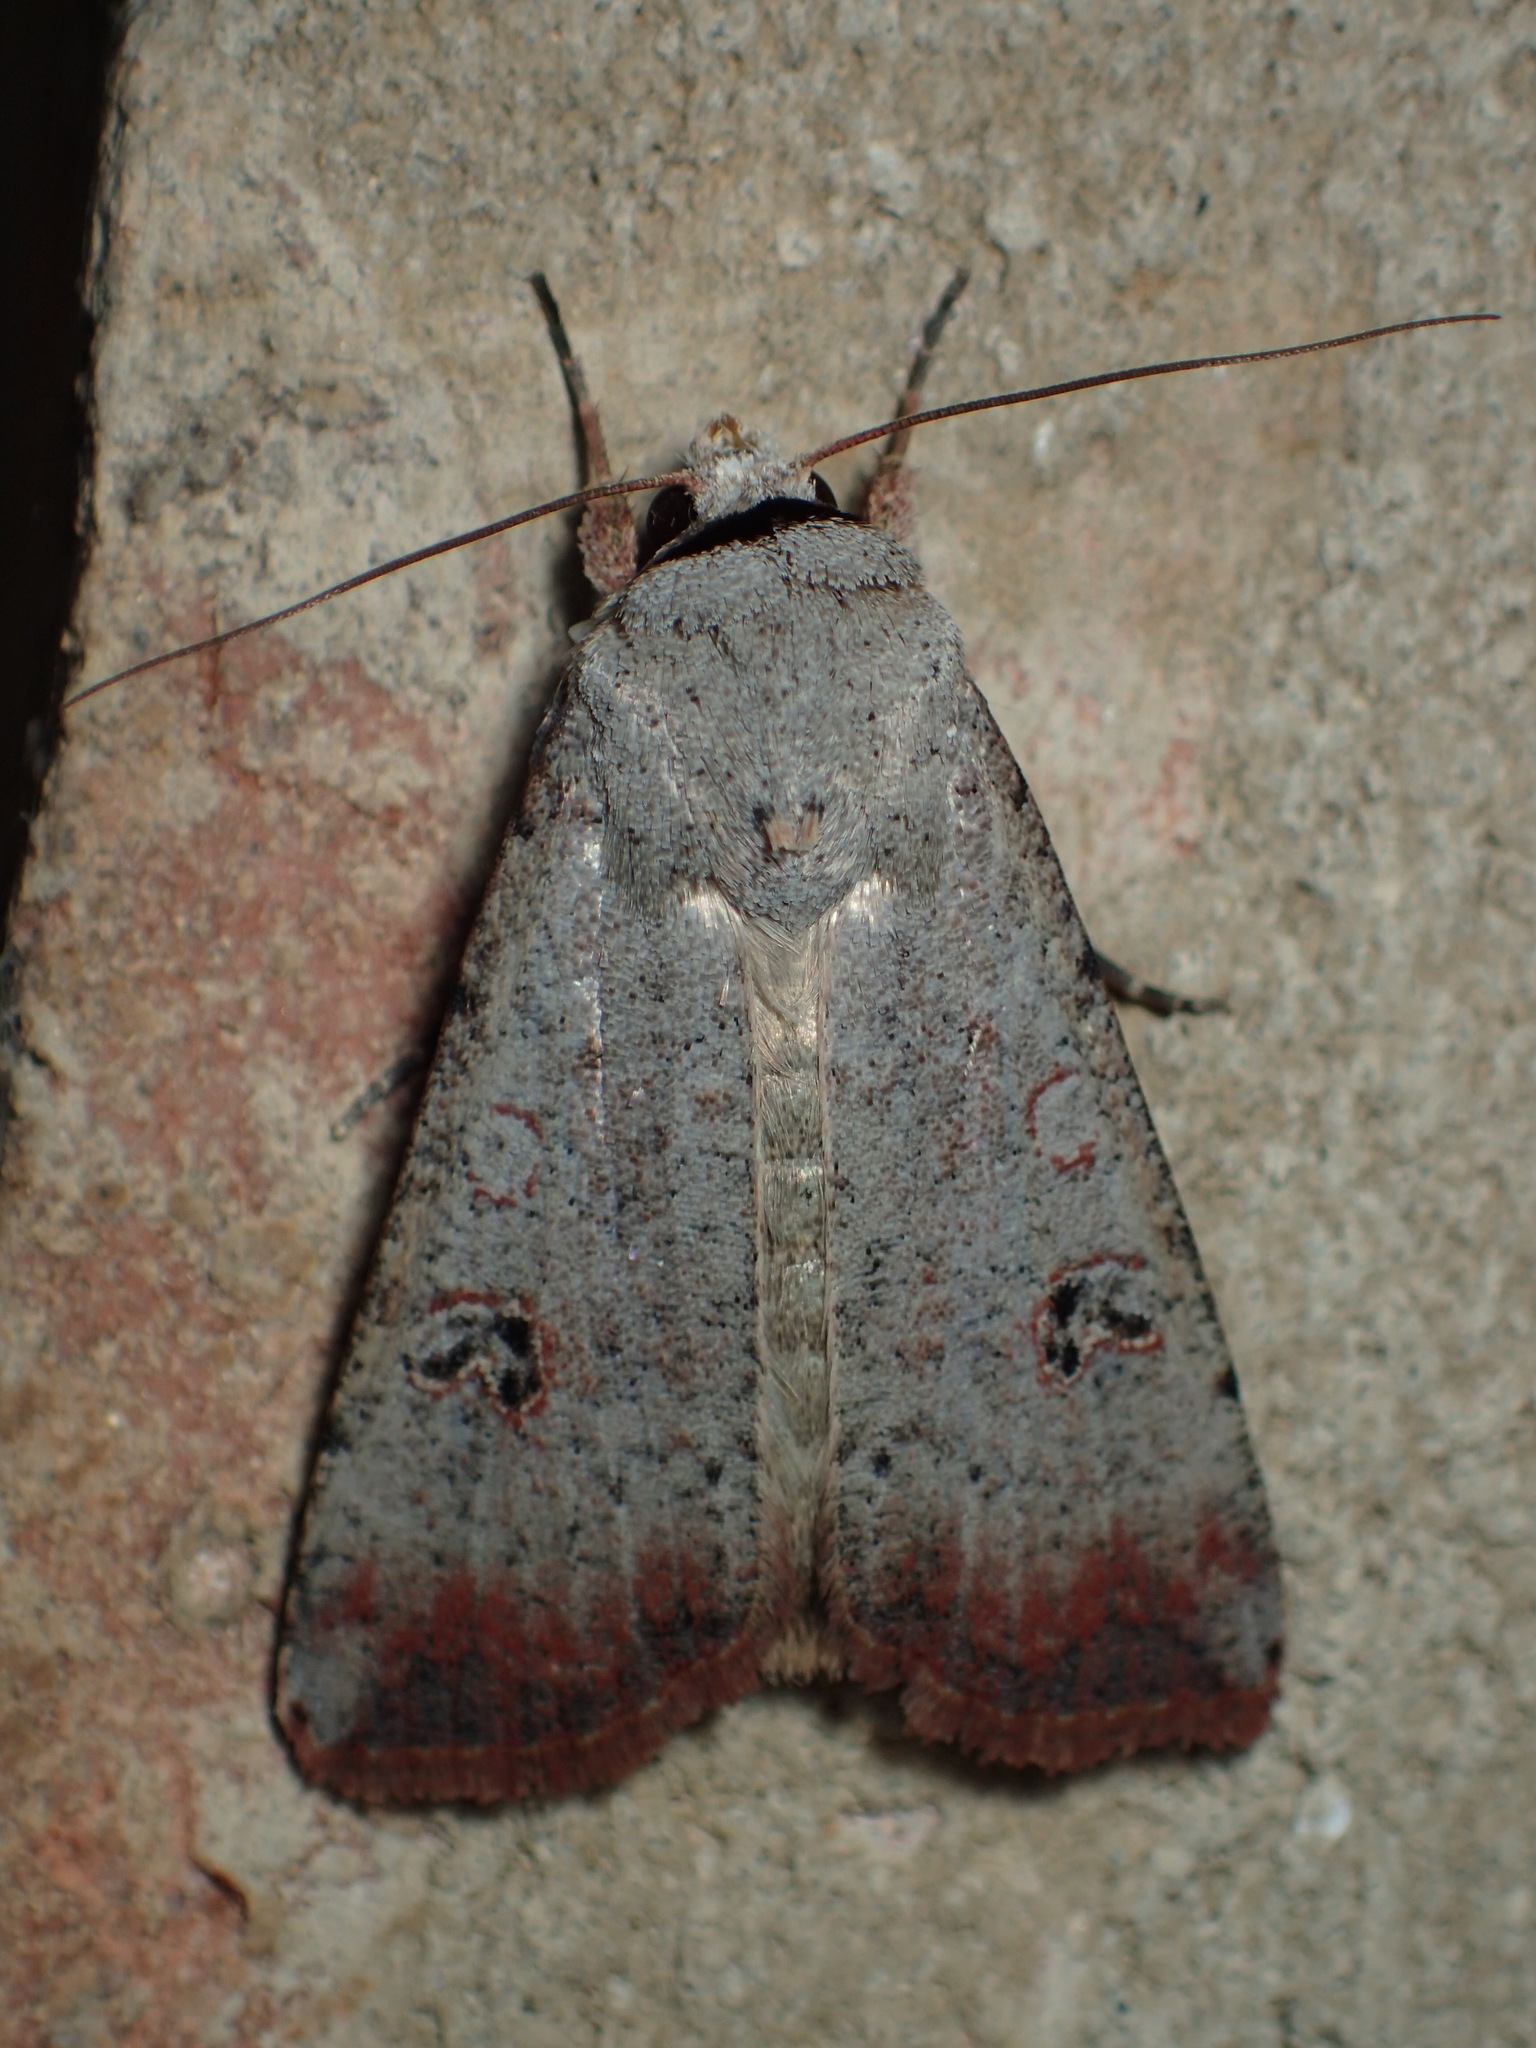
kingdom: Animalia
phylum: Arthropoda
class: Insecta
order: Lepidoptera
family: Noctuidae
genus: Anicla
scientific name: Anicla infecta
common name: Green cutworm
